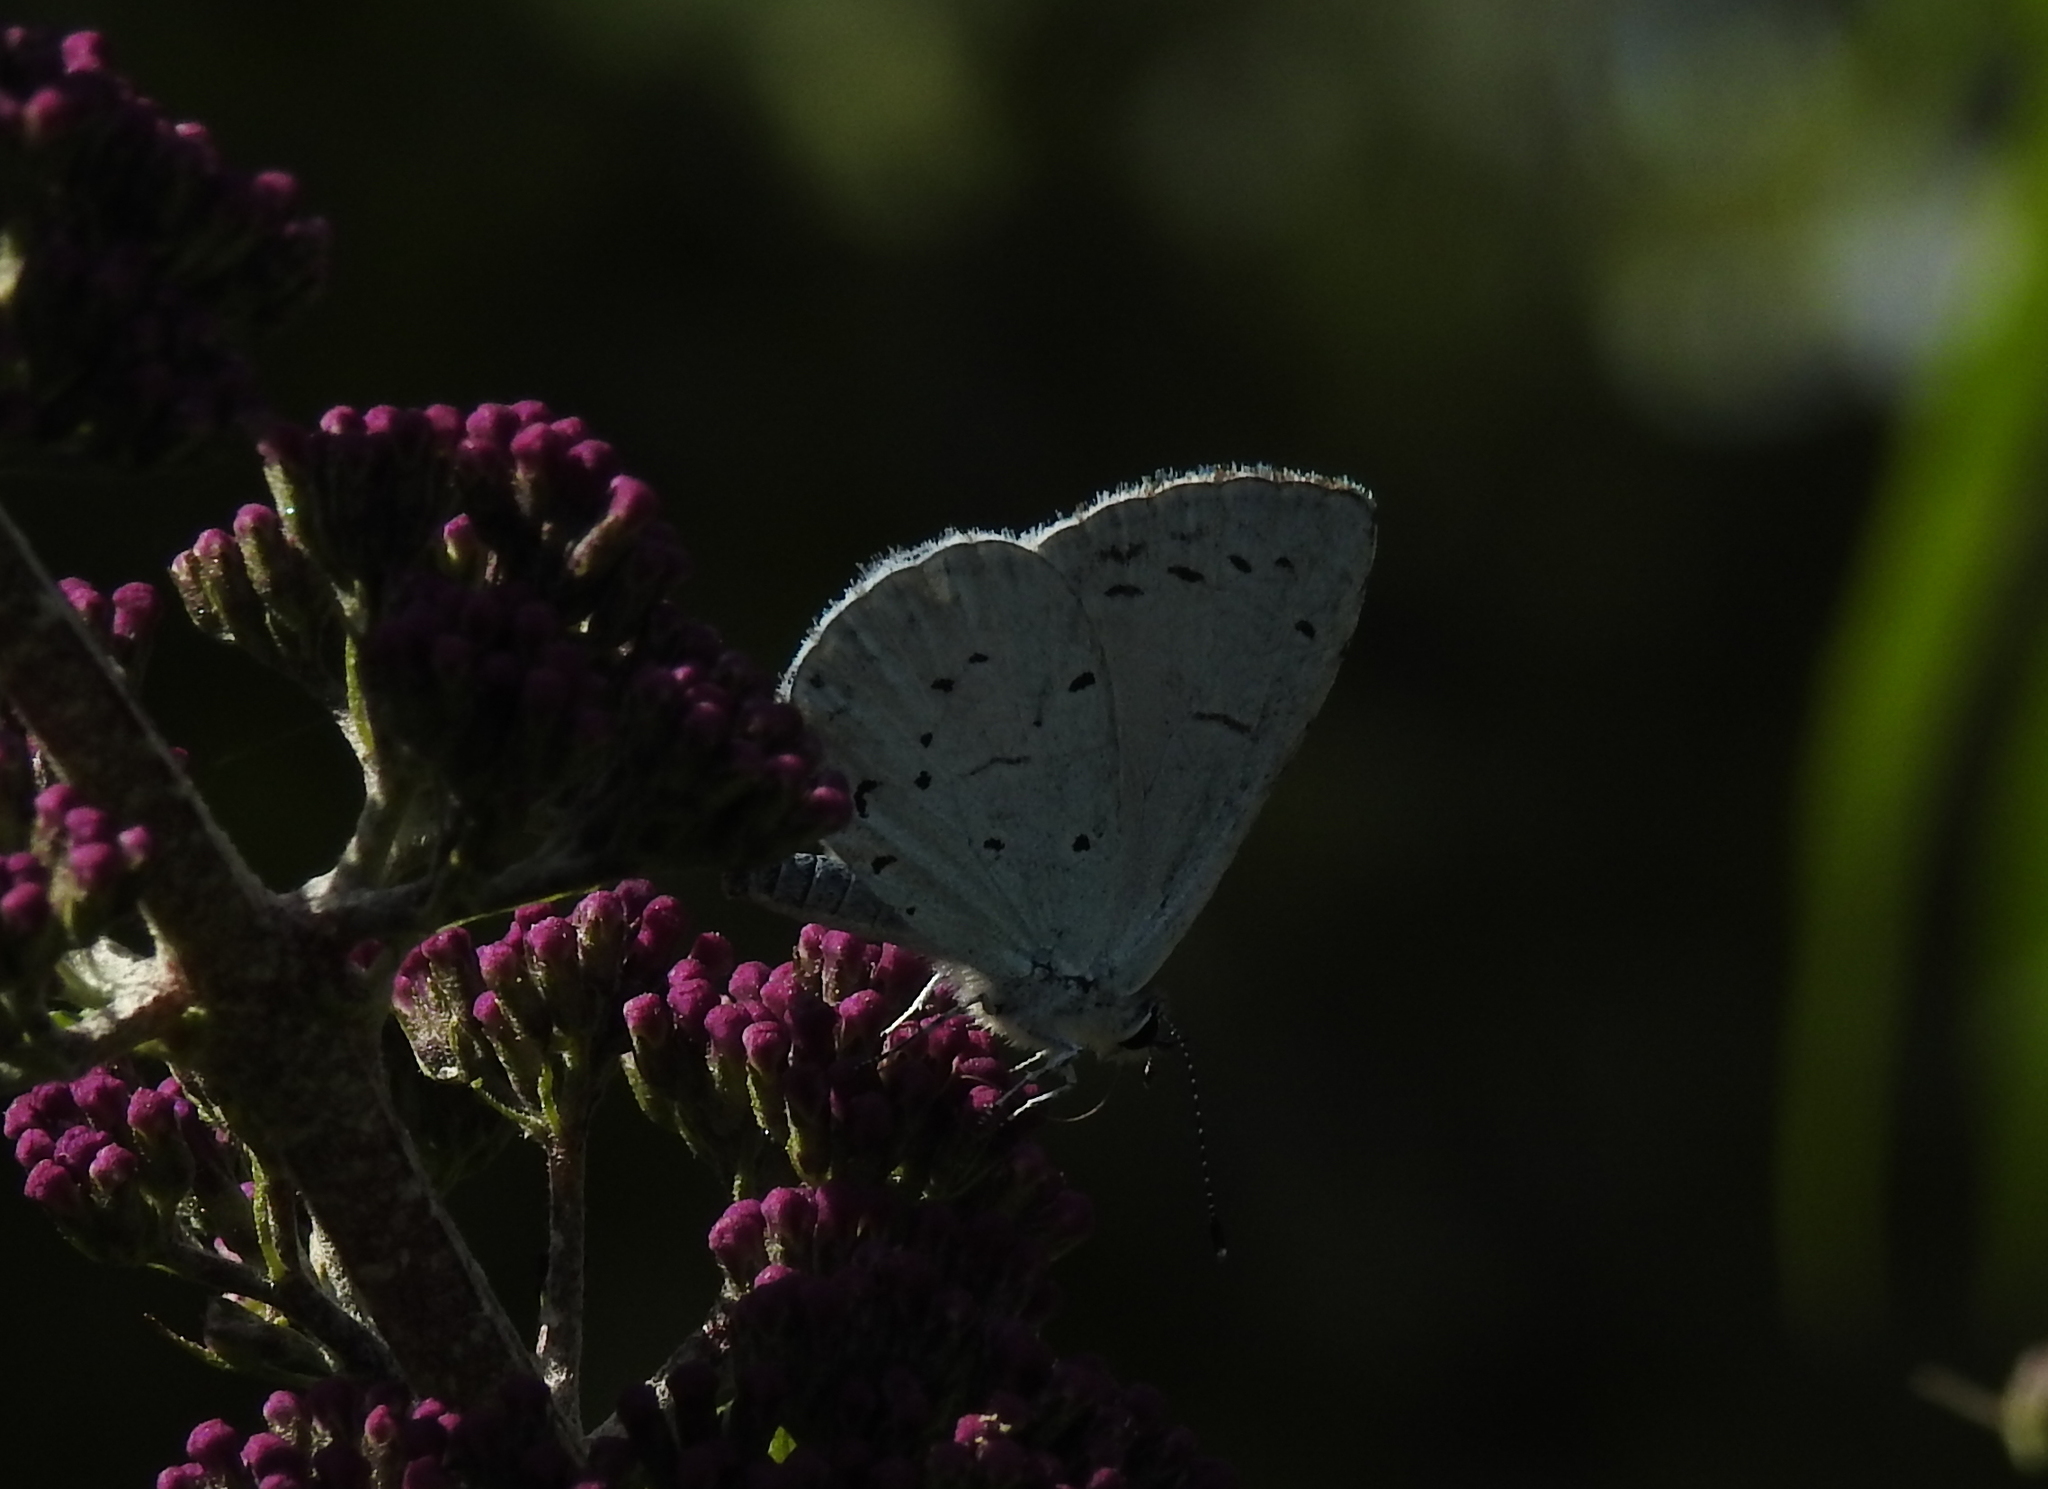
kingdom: Animalia
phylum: Arthropoda
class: Insecta
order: Lepidoptera
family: Lycaenidae
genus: Celastrina
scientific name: Celastrina argiolus
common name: Holly blue
